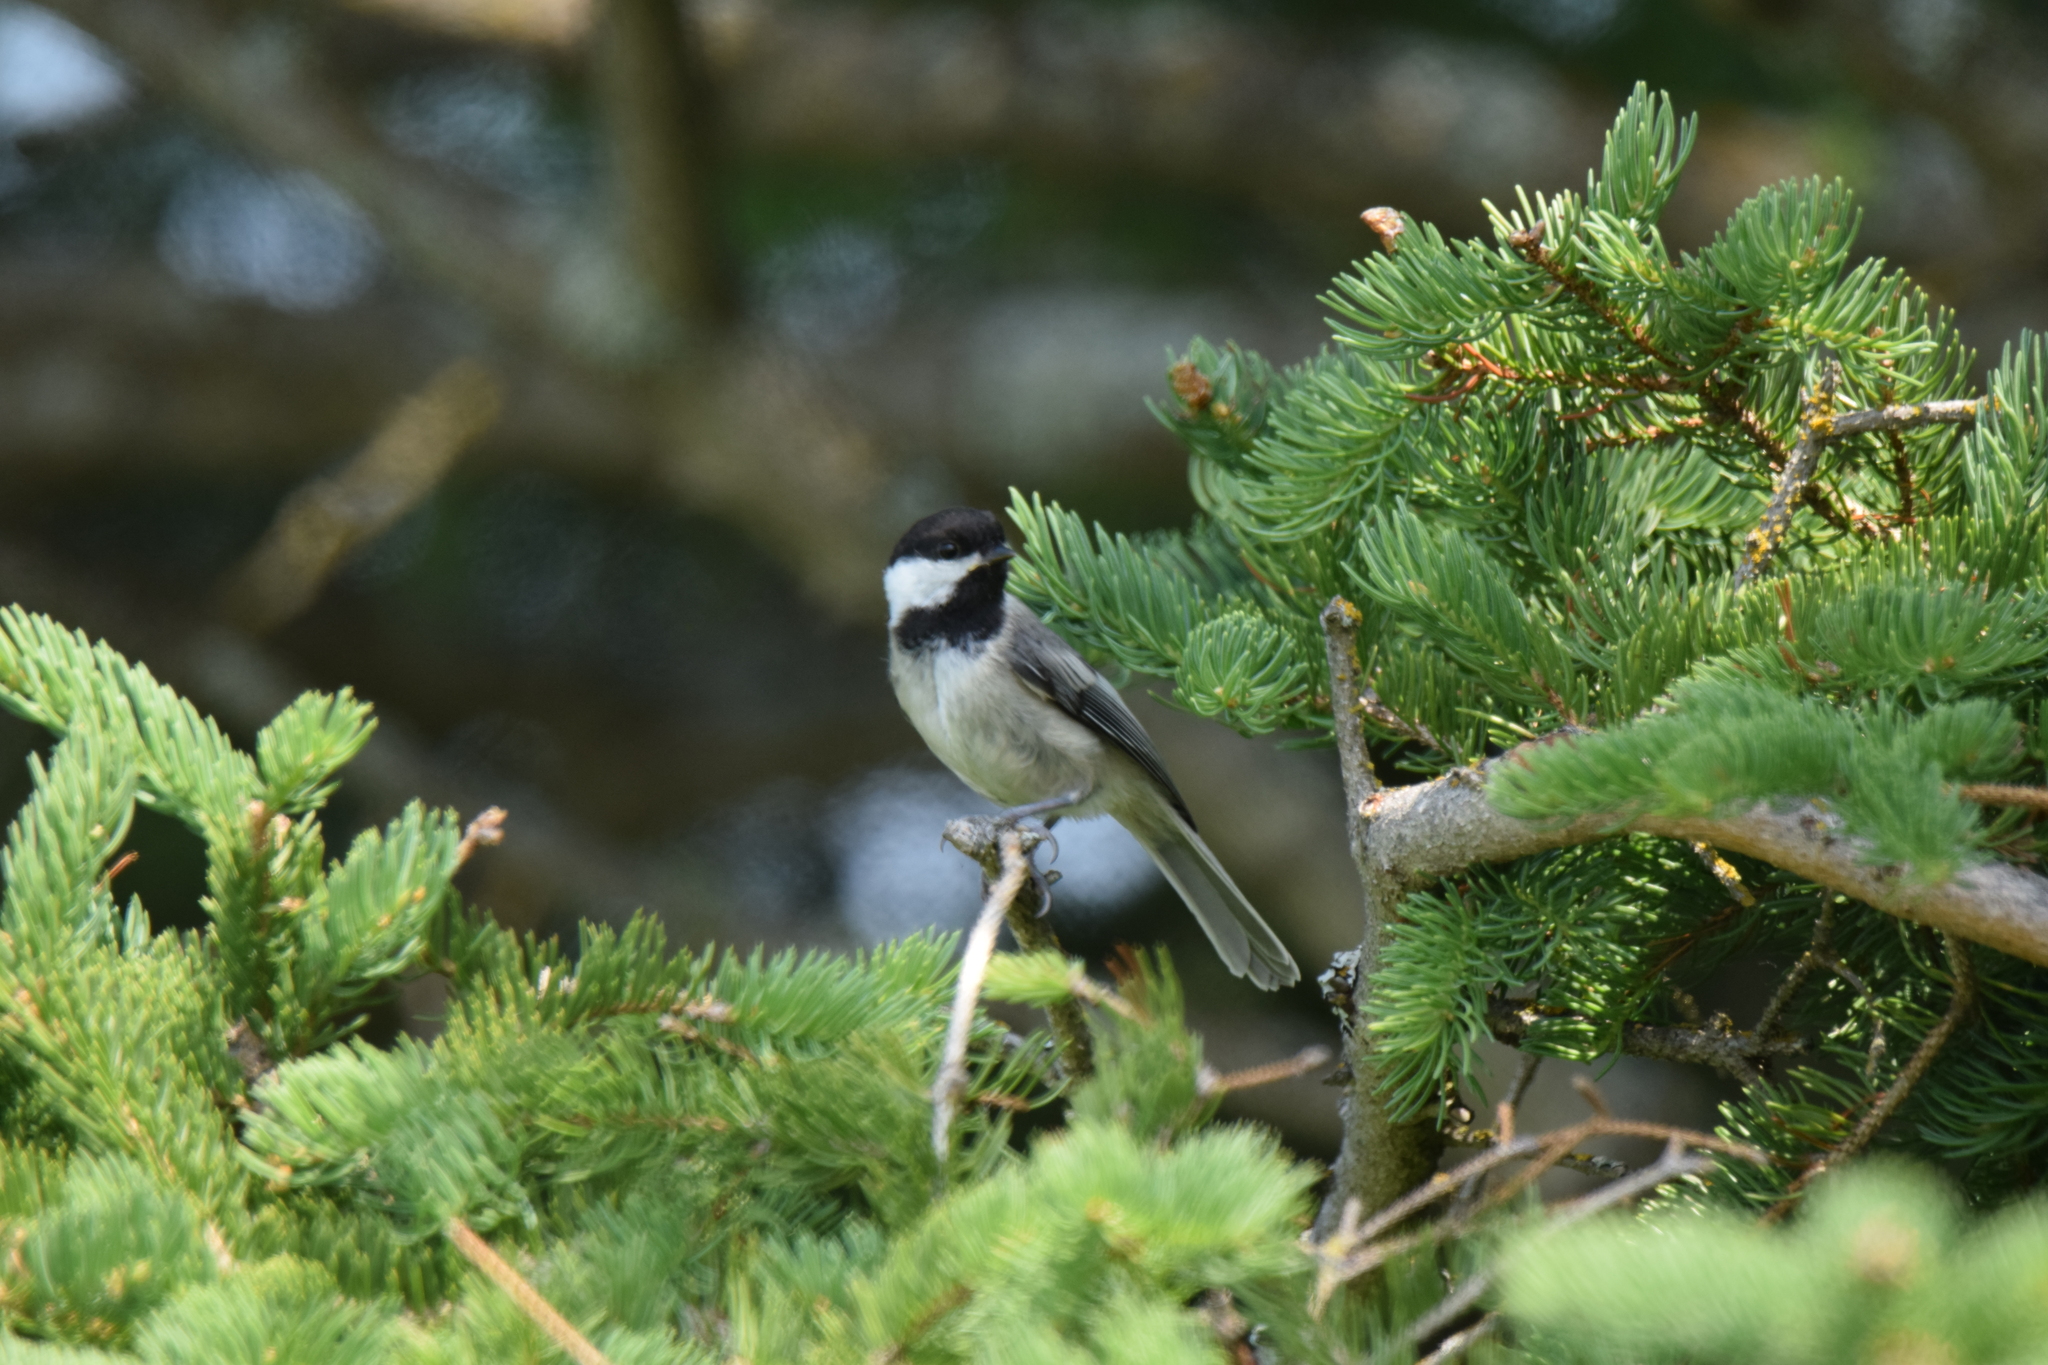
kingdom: Animalia
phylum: Chordata
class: Aves
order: Passeriformes
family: Paridae
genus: Poecile
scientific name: Poecile atricapillus
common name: Black-capped chickadee
